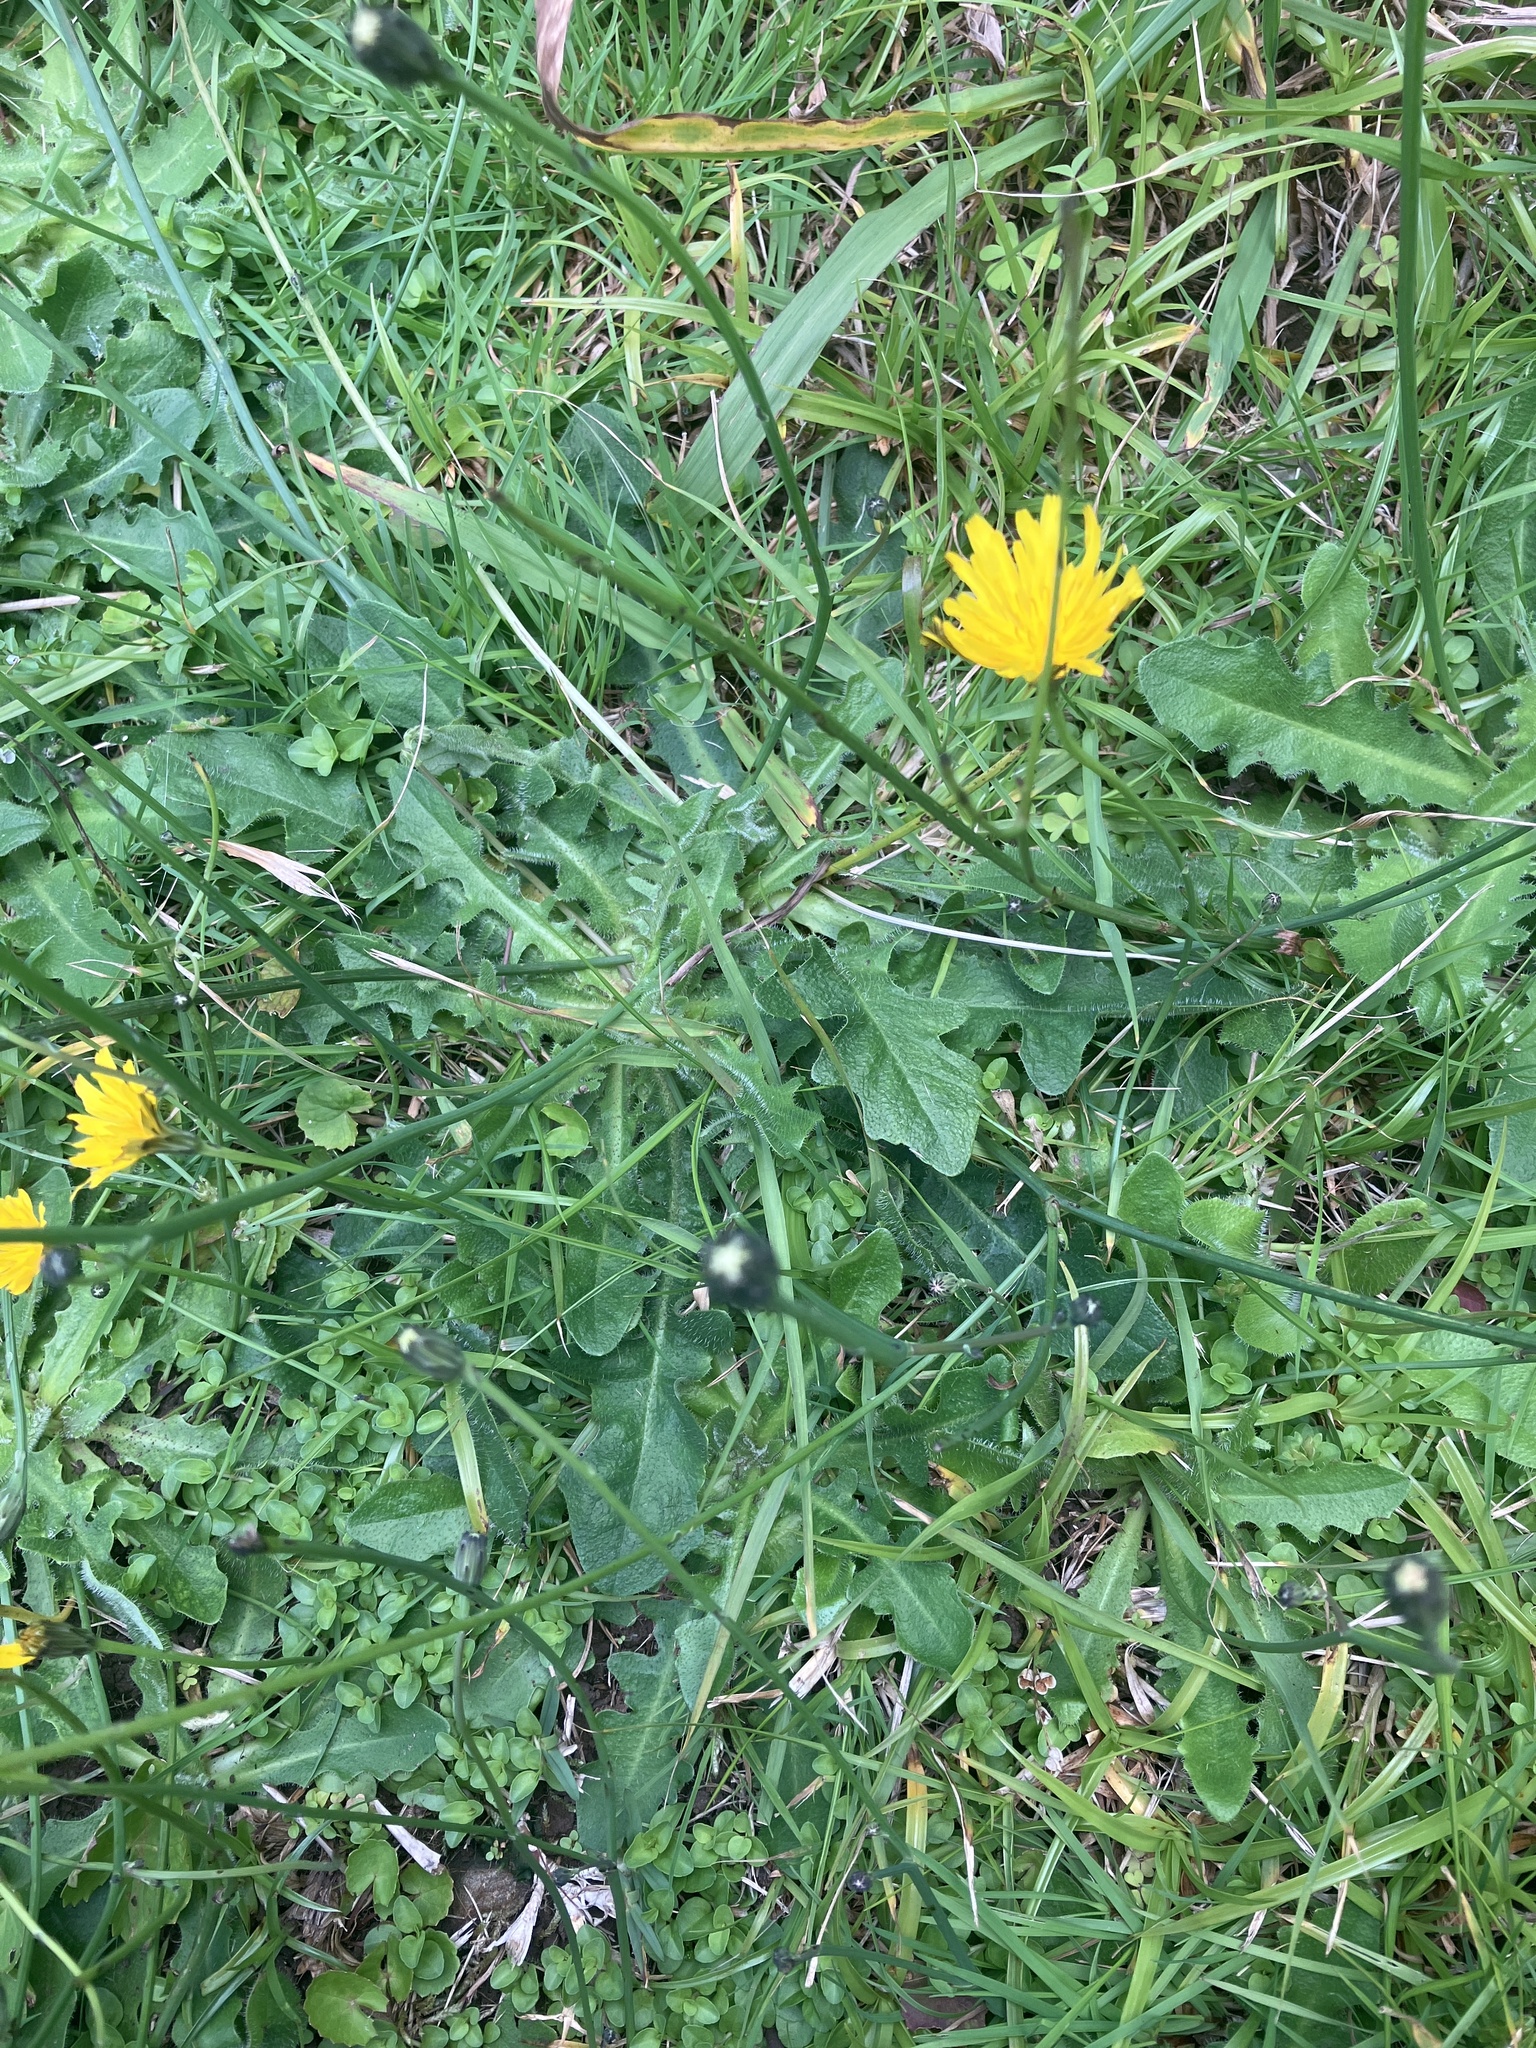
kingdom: Plantae
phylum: Tracheophyta
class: Magnoliopsida
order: Asterales
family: Asteraceae
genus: Hypochaeris
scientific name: Hypochaeris radicata
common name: Flatweed
